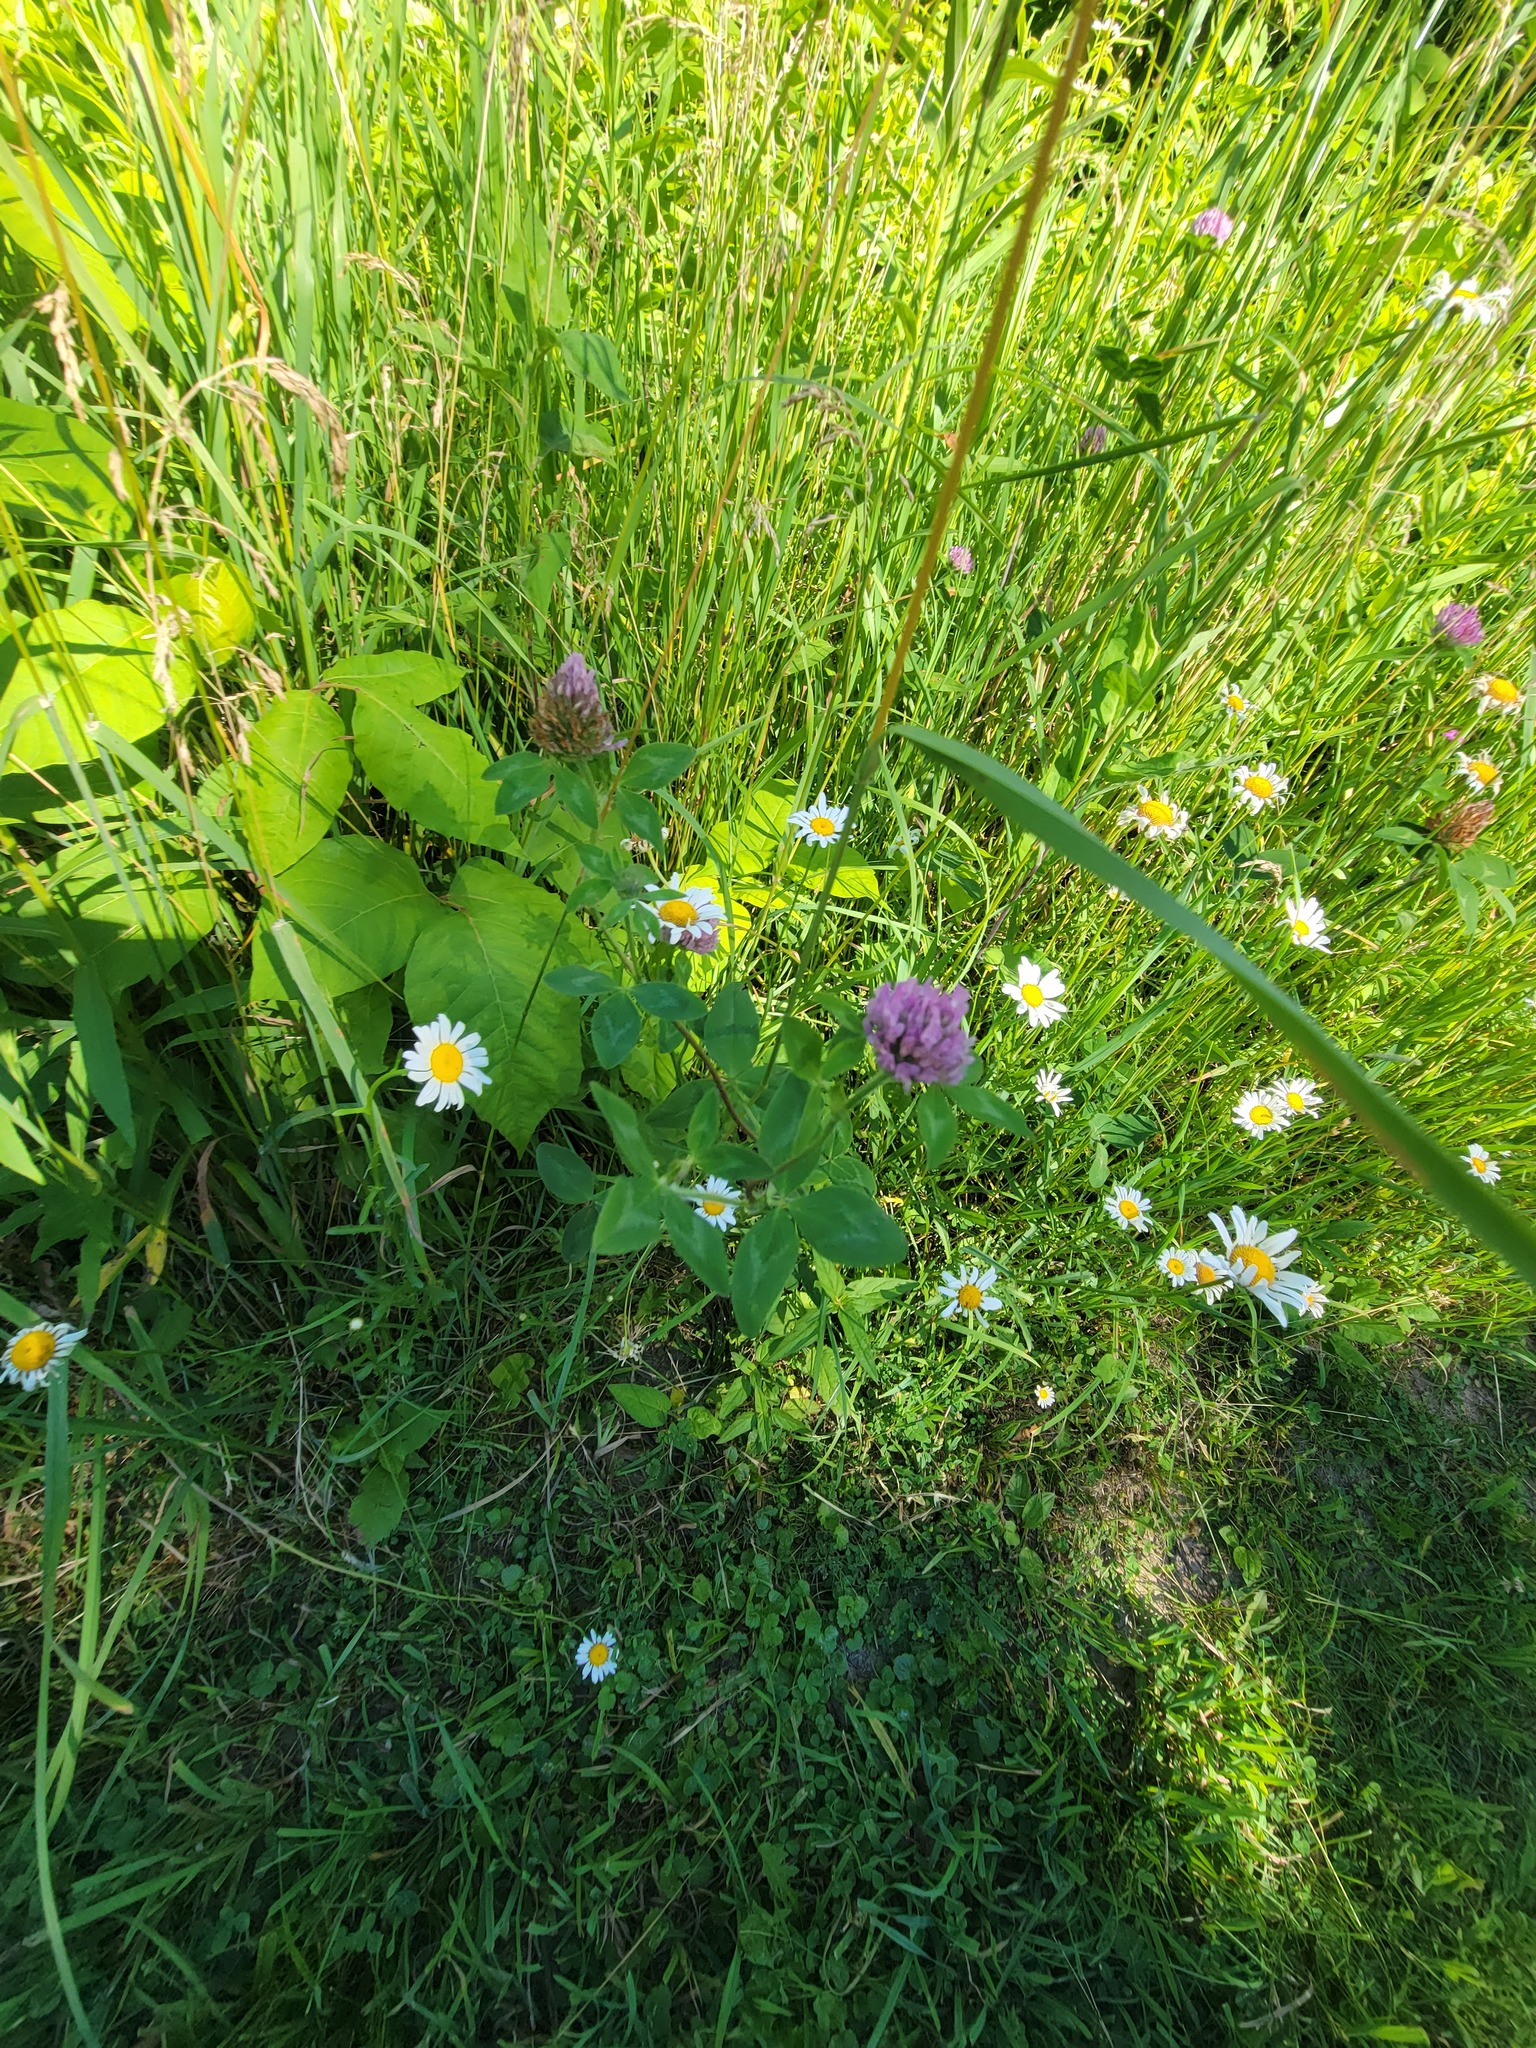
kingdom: Plantae
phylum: Tracheophyta
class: Magnoliopsida
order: Fabales
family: Fabaceae
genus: Trifolium
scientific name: Trifolium pratense
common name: Red clover
